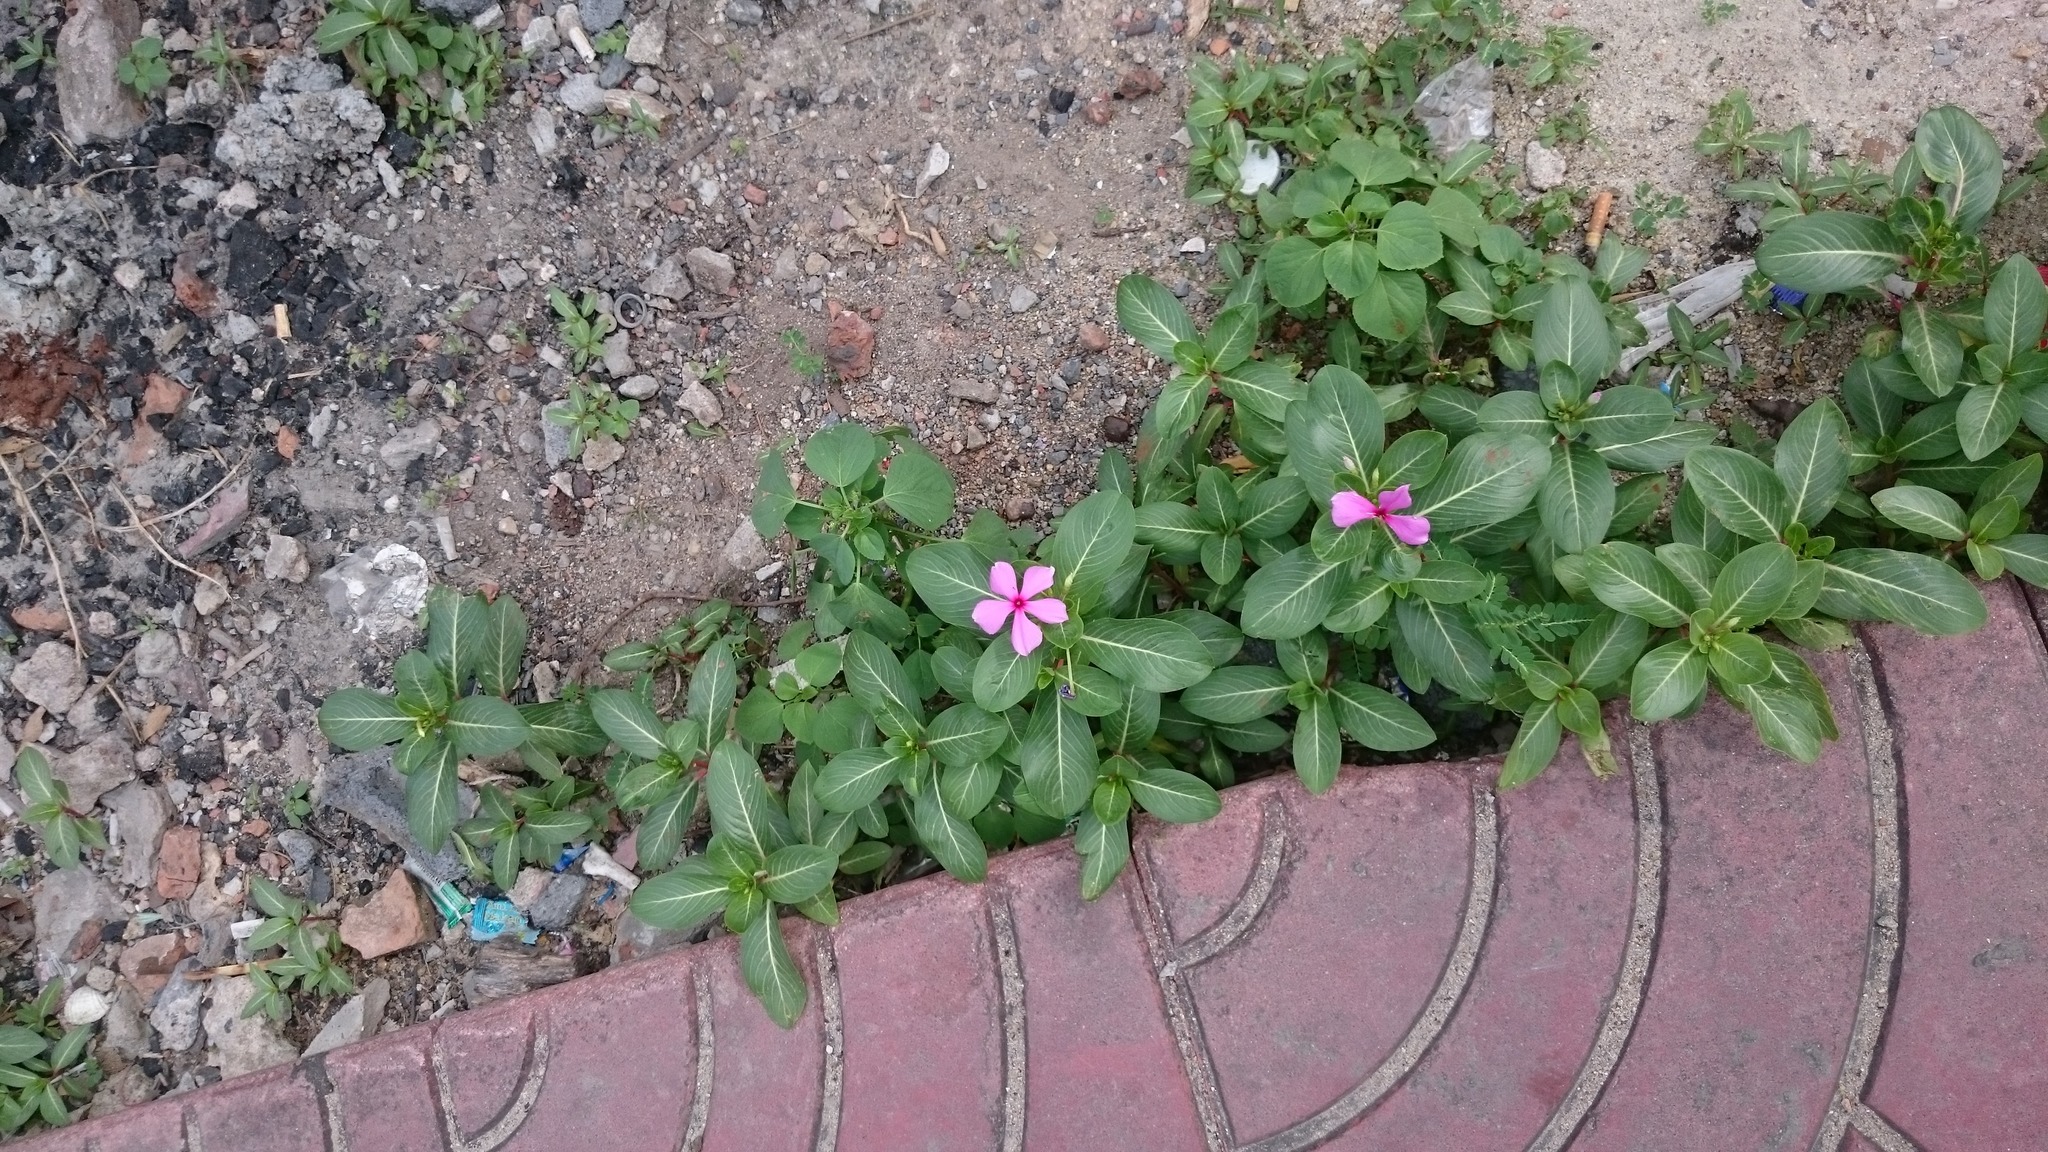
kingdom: Plantae
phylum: Tracheophyta
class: Magnoliopsida
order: Gentianales
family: Apocynaceae
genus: Catharanthus
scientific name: Catharanthus roseus
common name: Madagascar periwinkle
